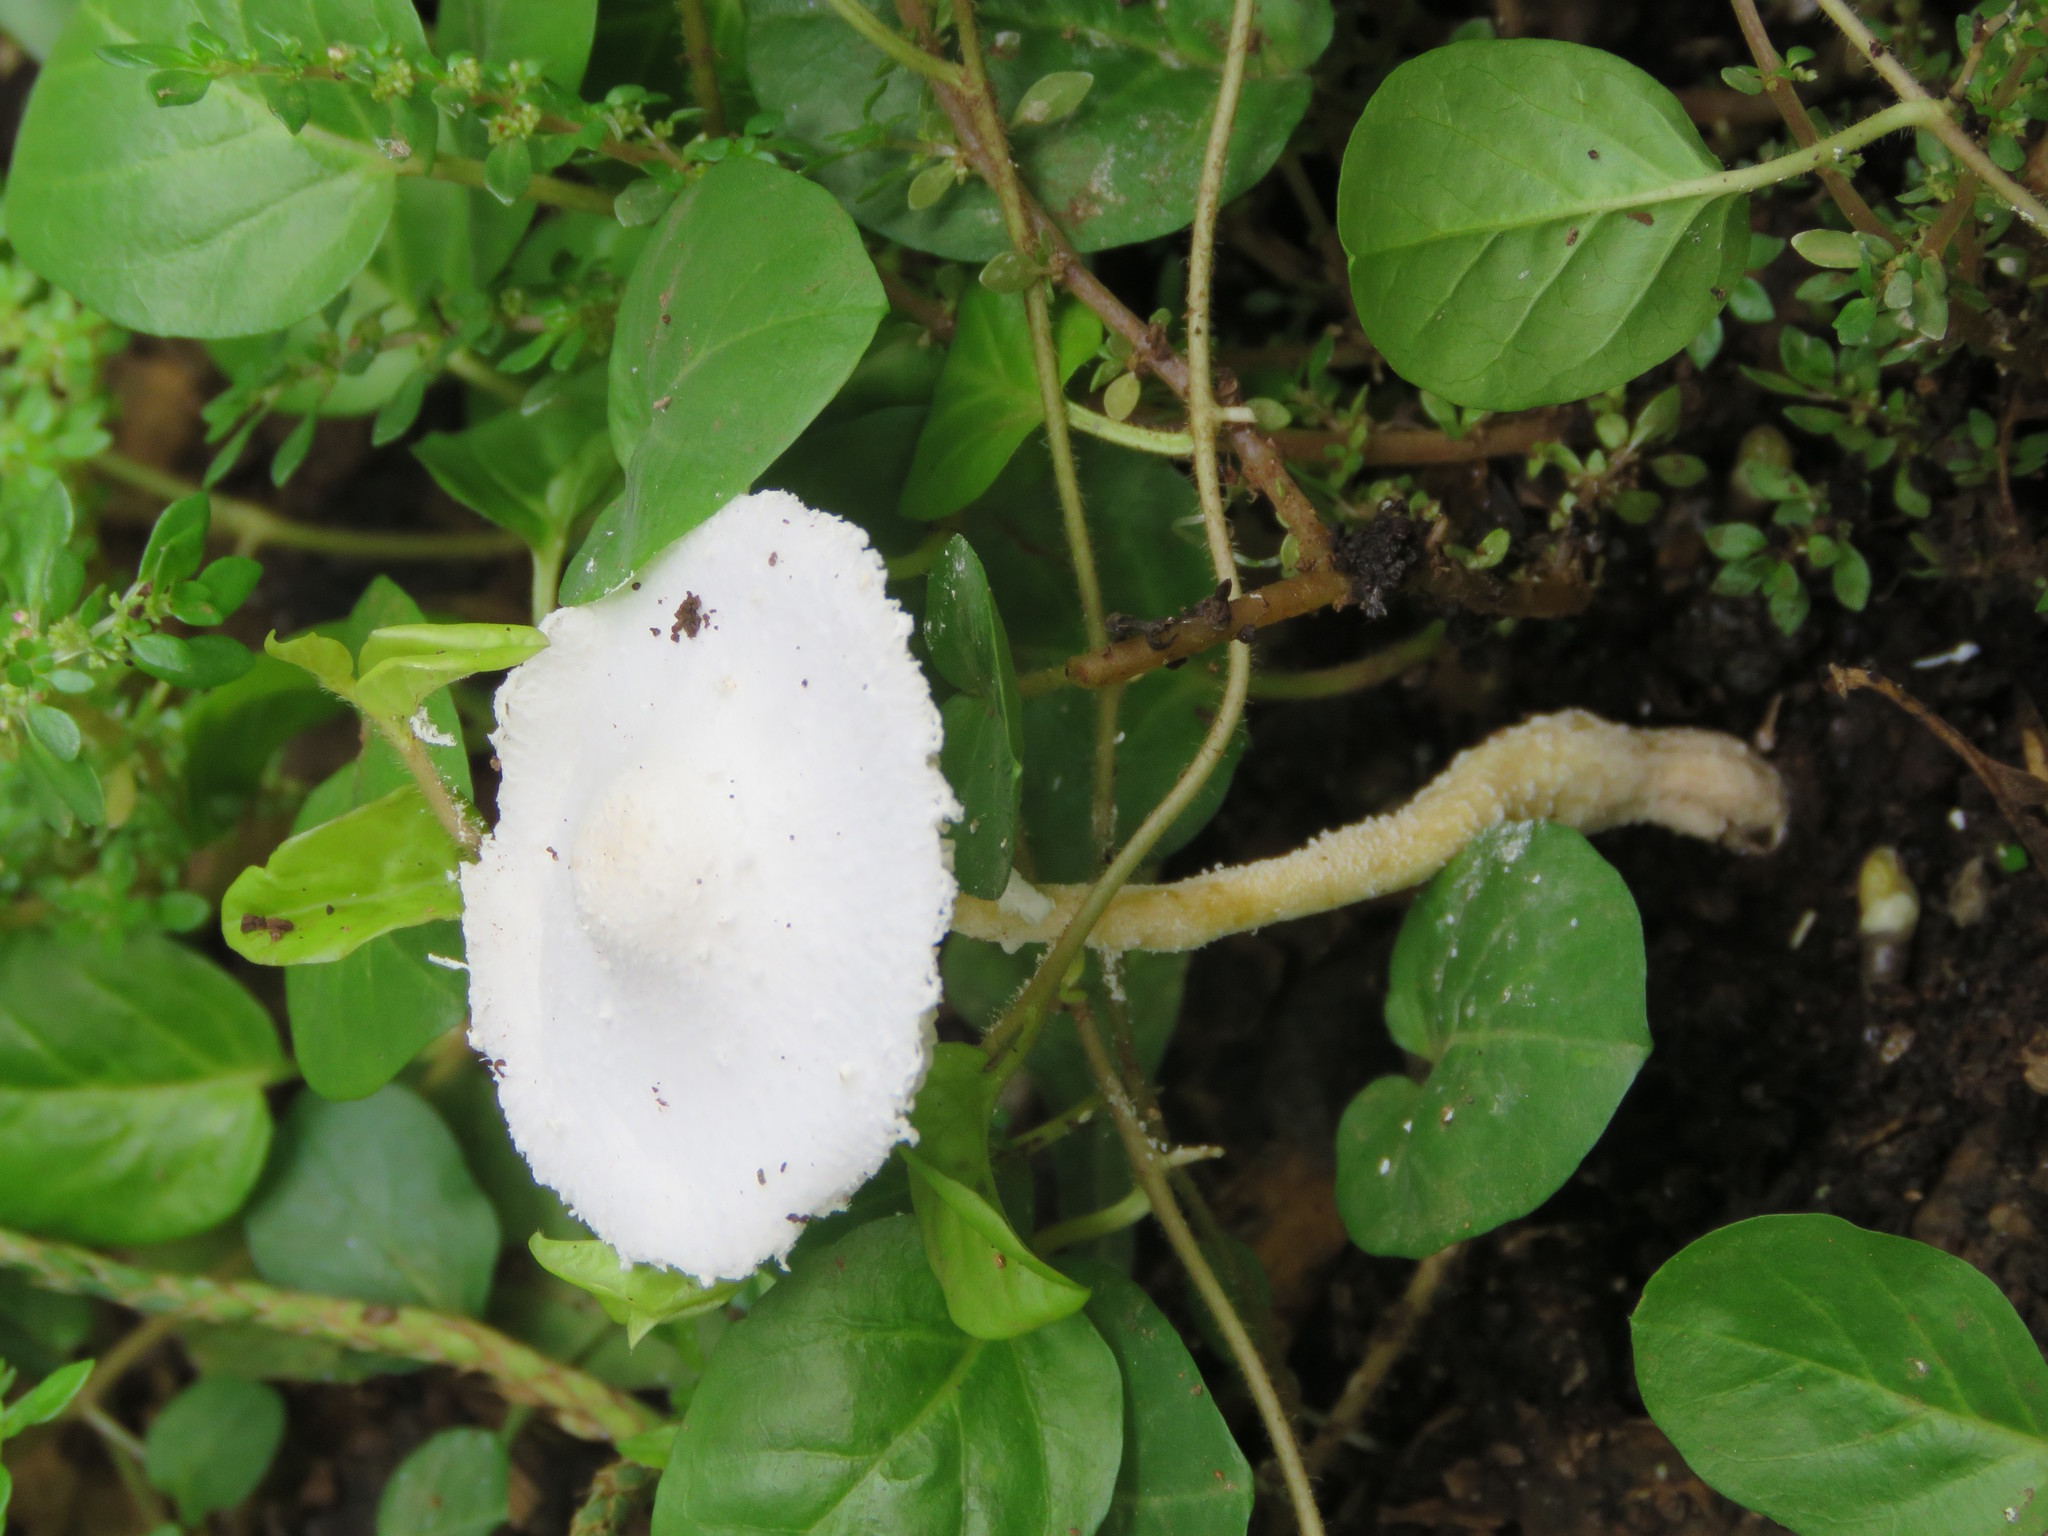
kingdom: Fungi
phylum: Basidiomycota
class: Agaricomycetes
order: Agaricales
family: Agaricaceae
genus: Leucocoprinus
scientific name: Leucocoprinus cretaceus
